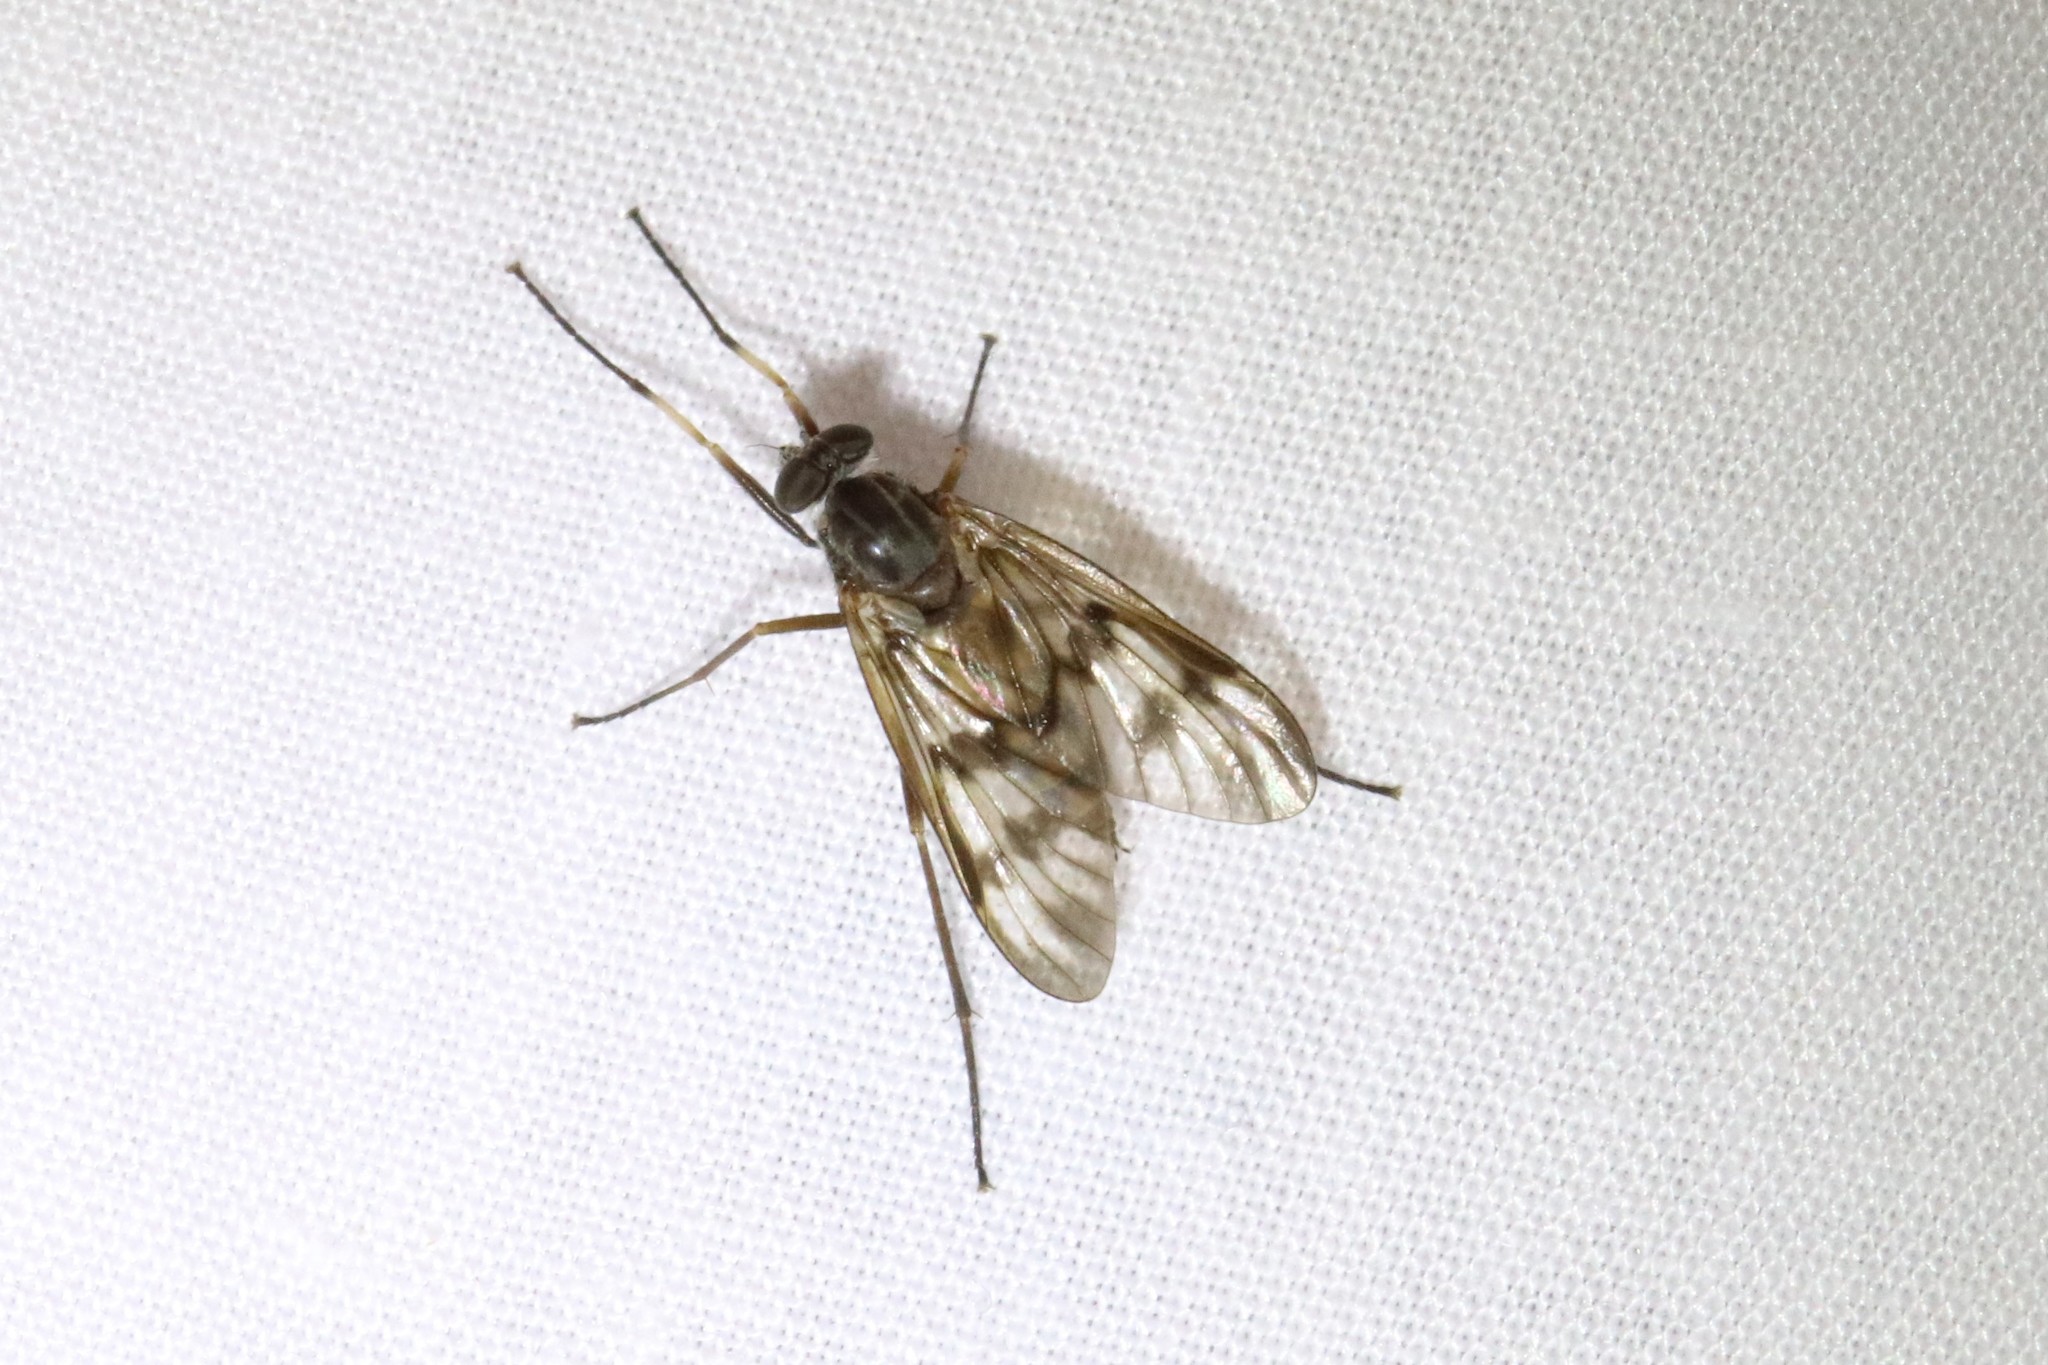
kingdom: Animalia
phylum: Arthropoda
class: Insecta
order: Diptera
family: Rhagionidae
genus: Rhagio
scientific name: Rhagio mystaceus
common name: Common snipe fly
